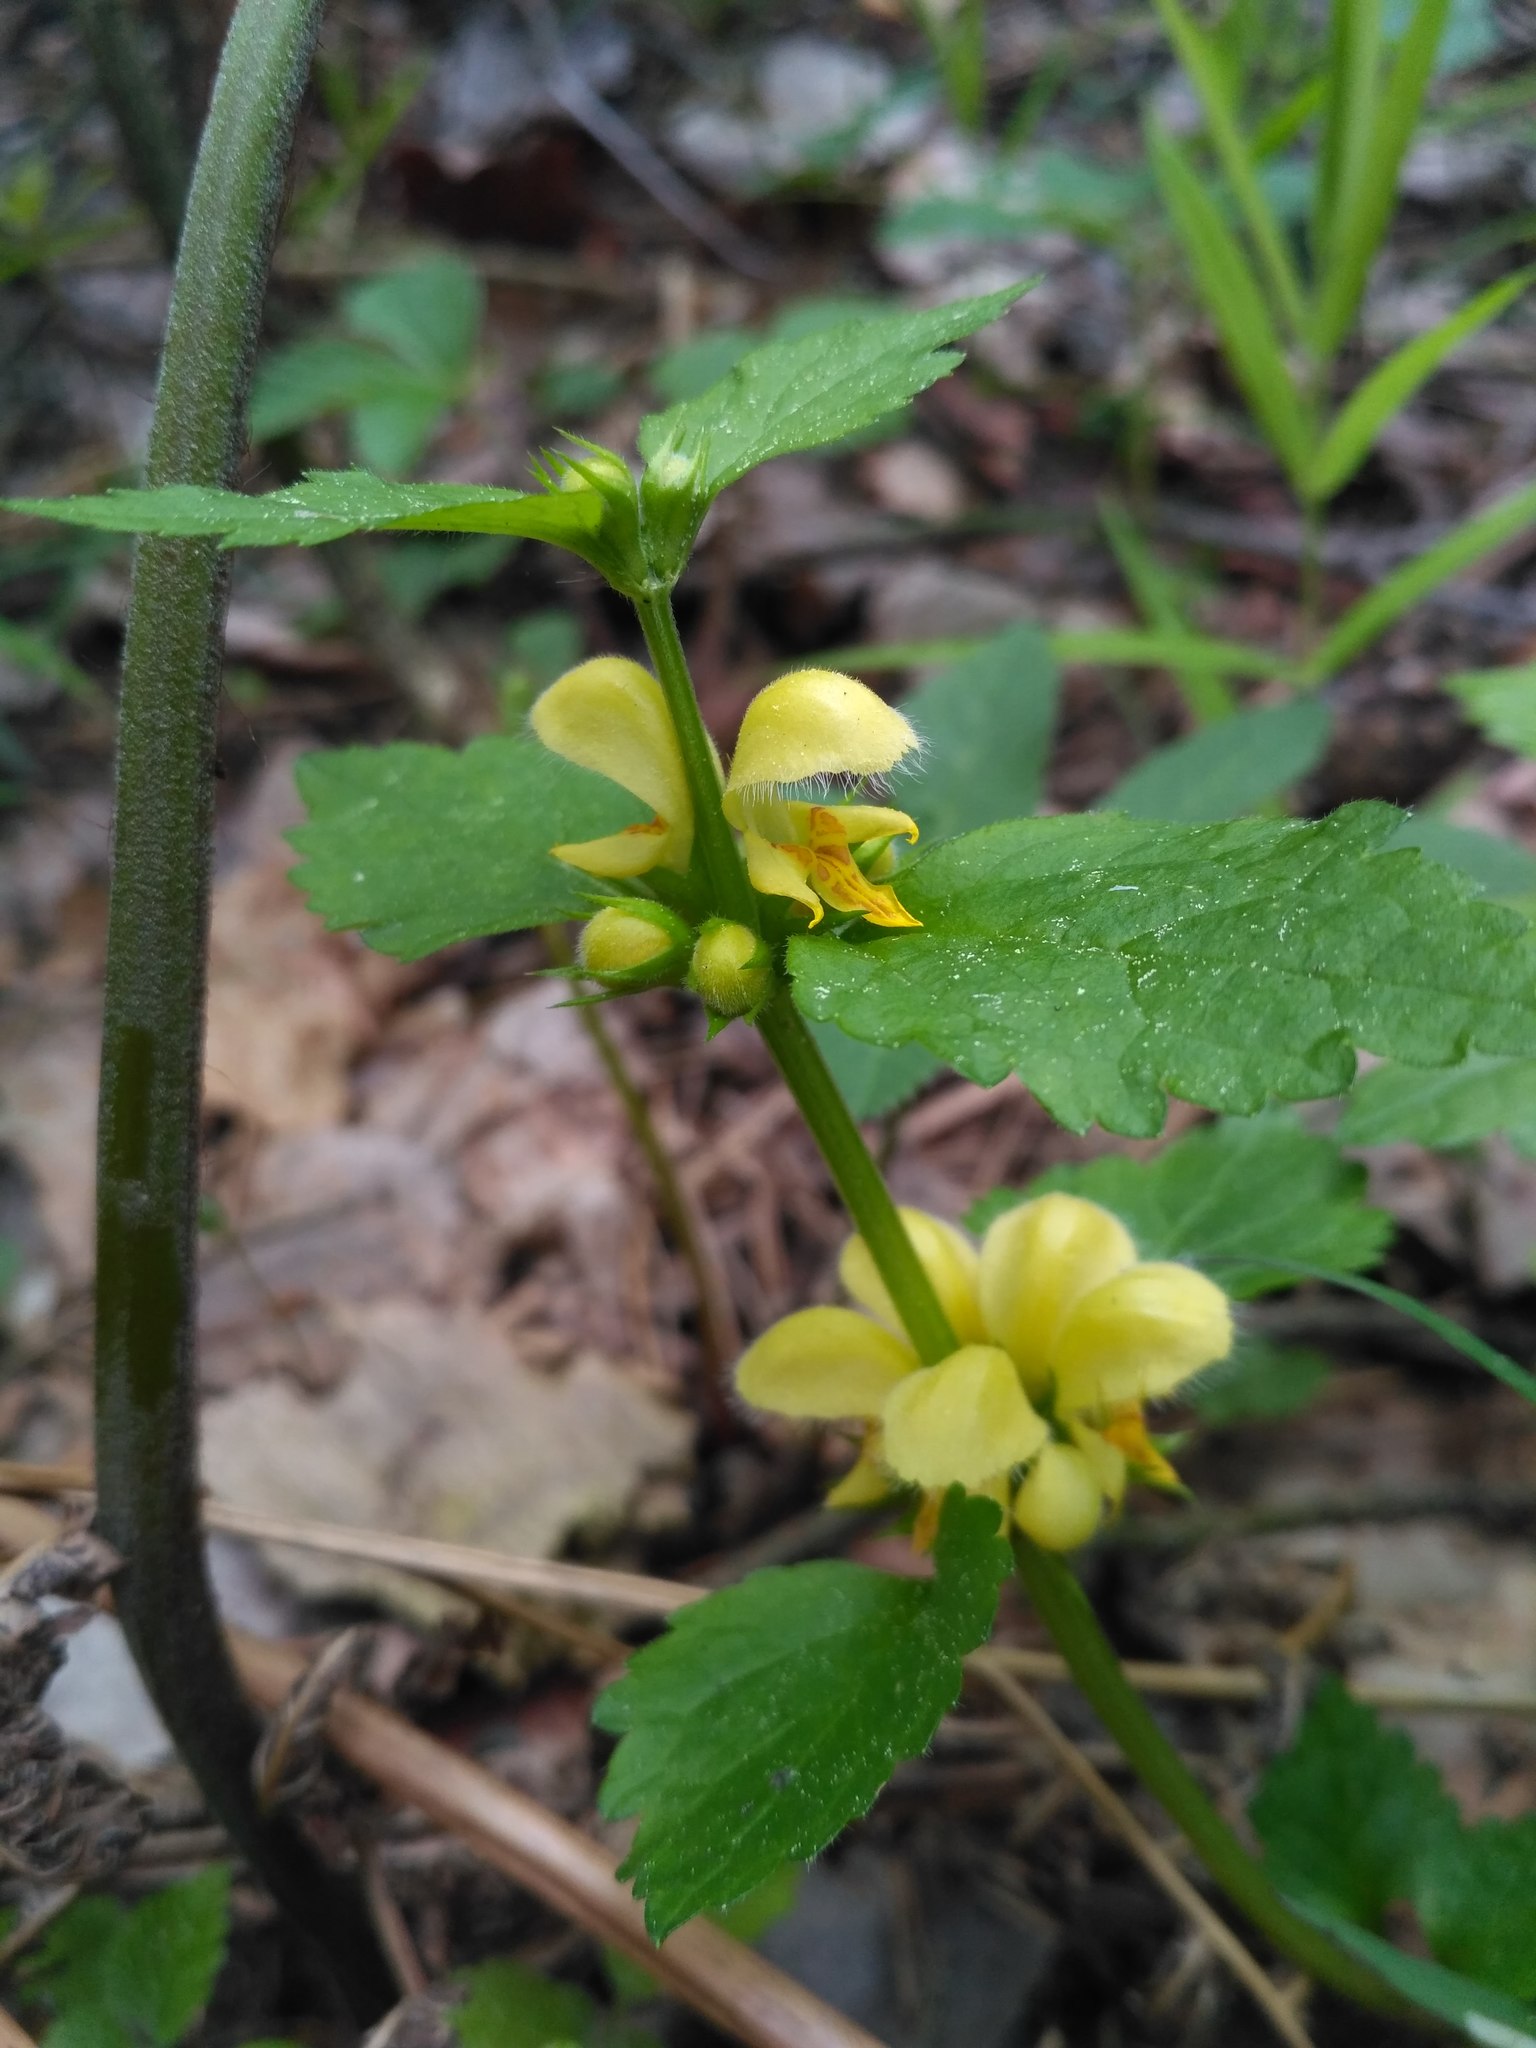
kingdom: Plantae
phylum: Tracheophyta
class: Magnoliopsida
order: Lamiales
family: Lamiaceae
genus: Lamium
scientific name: Lamium galeobdolon
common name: Yellow archangel
